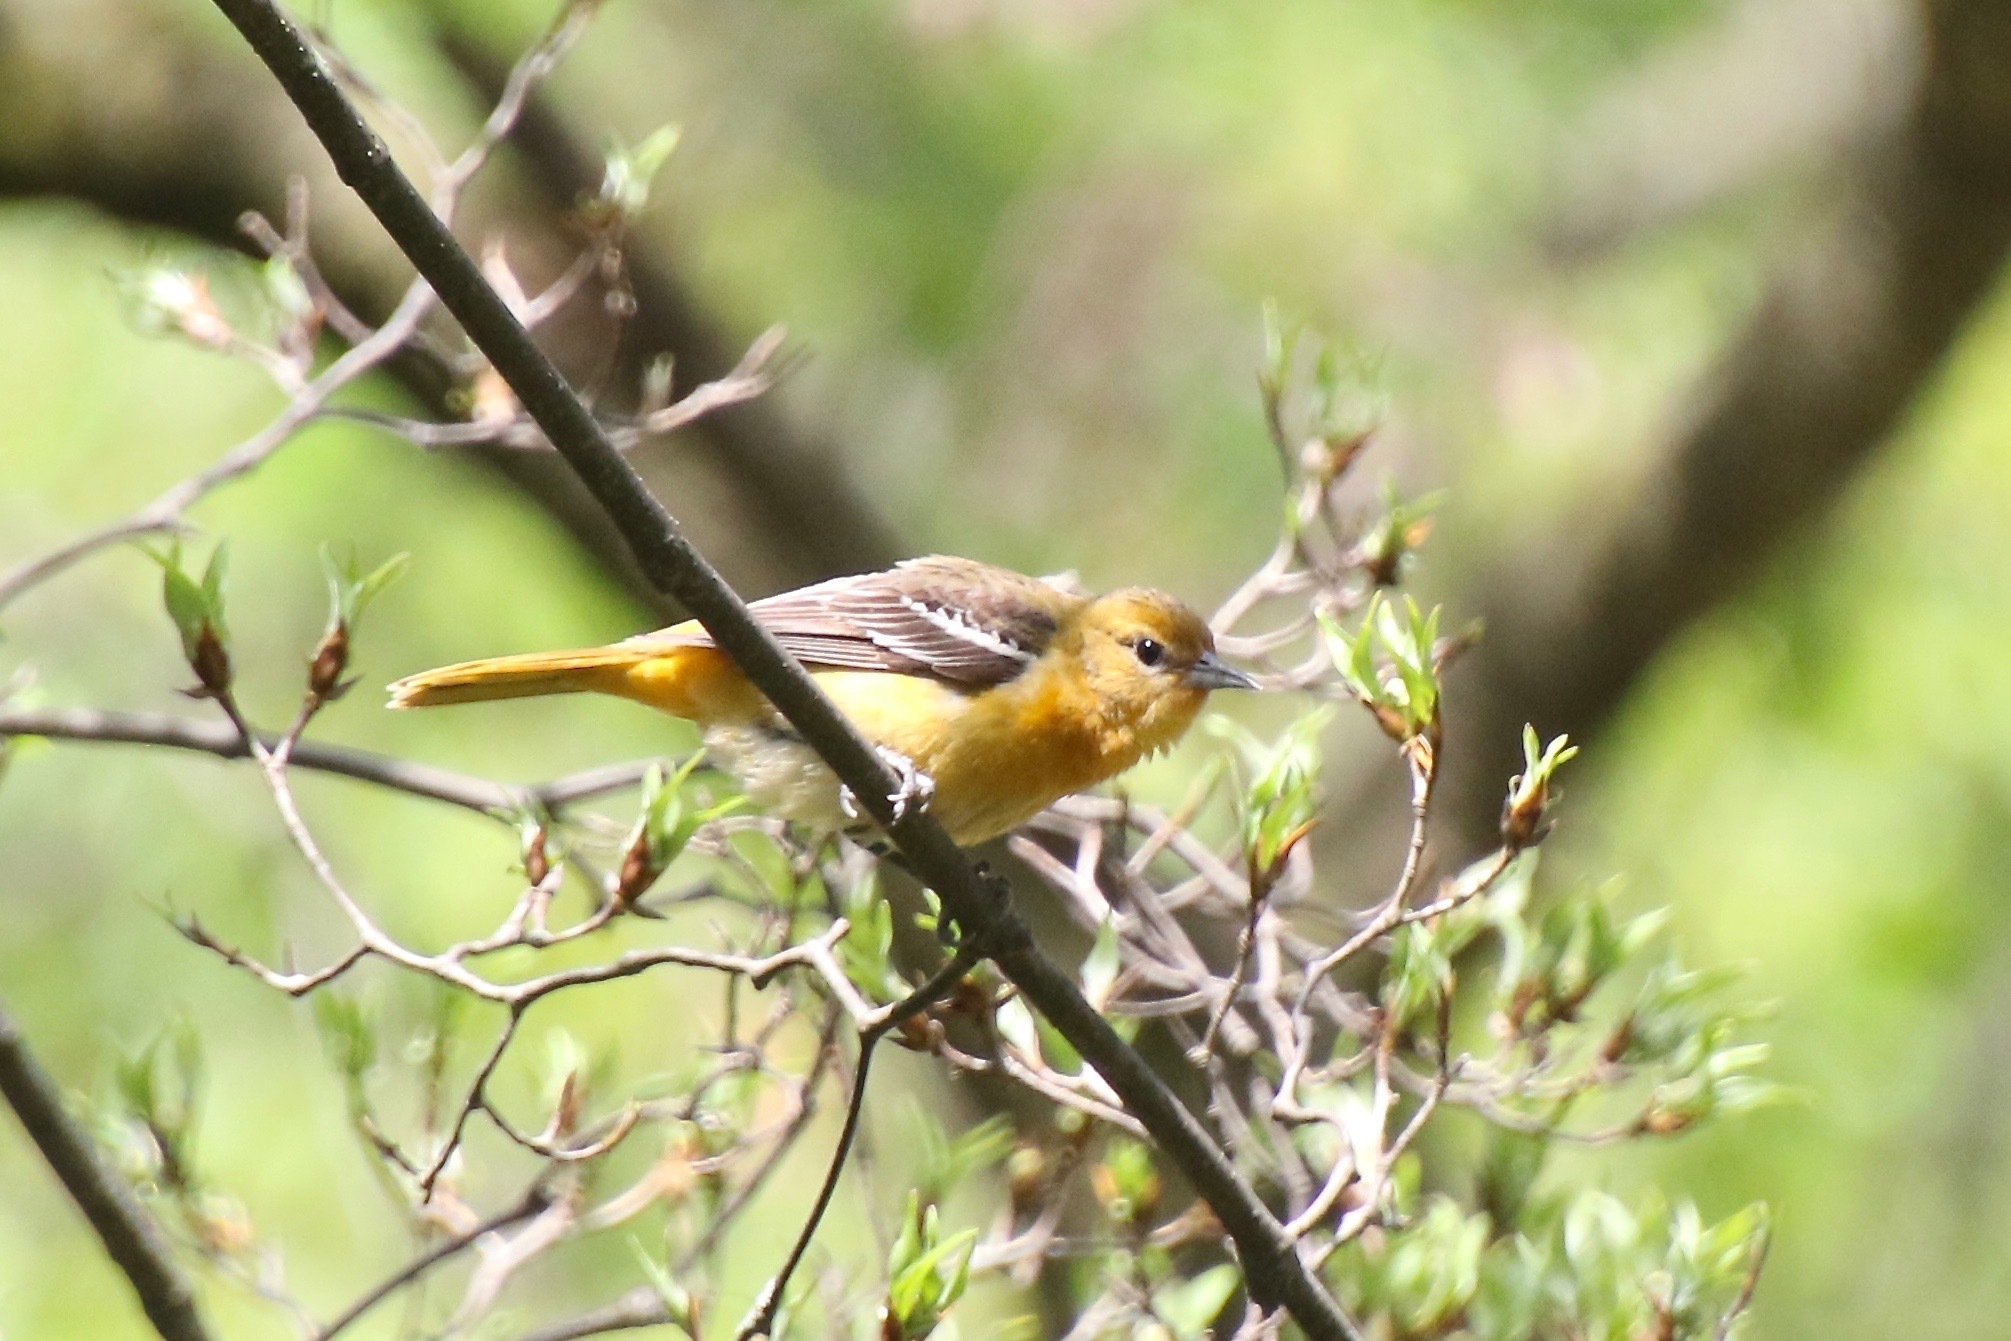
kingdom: Animalia
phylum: Chordata
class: Aves
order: Passeriformes
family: Icteridae
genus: Icterus
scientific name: Icterus galbula
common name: Baltimore oriole
